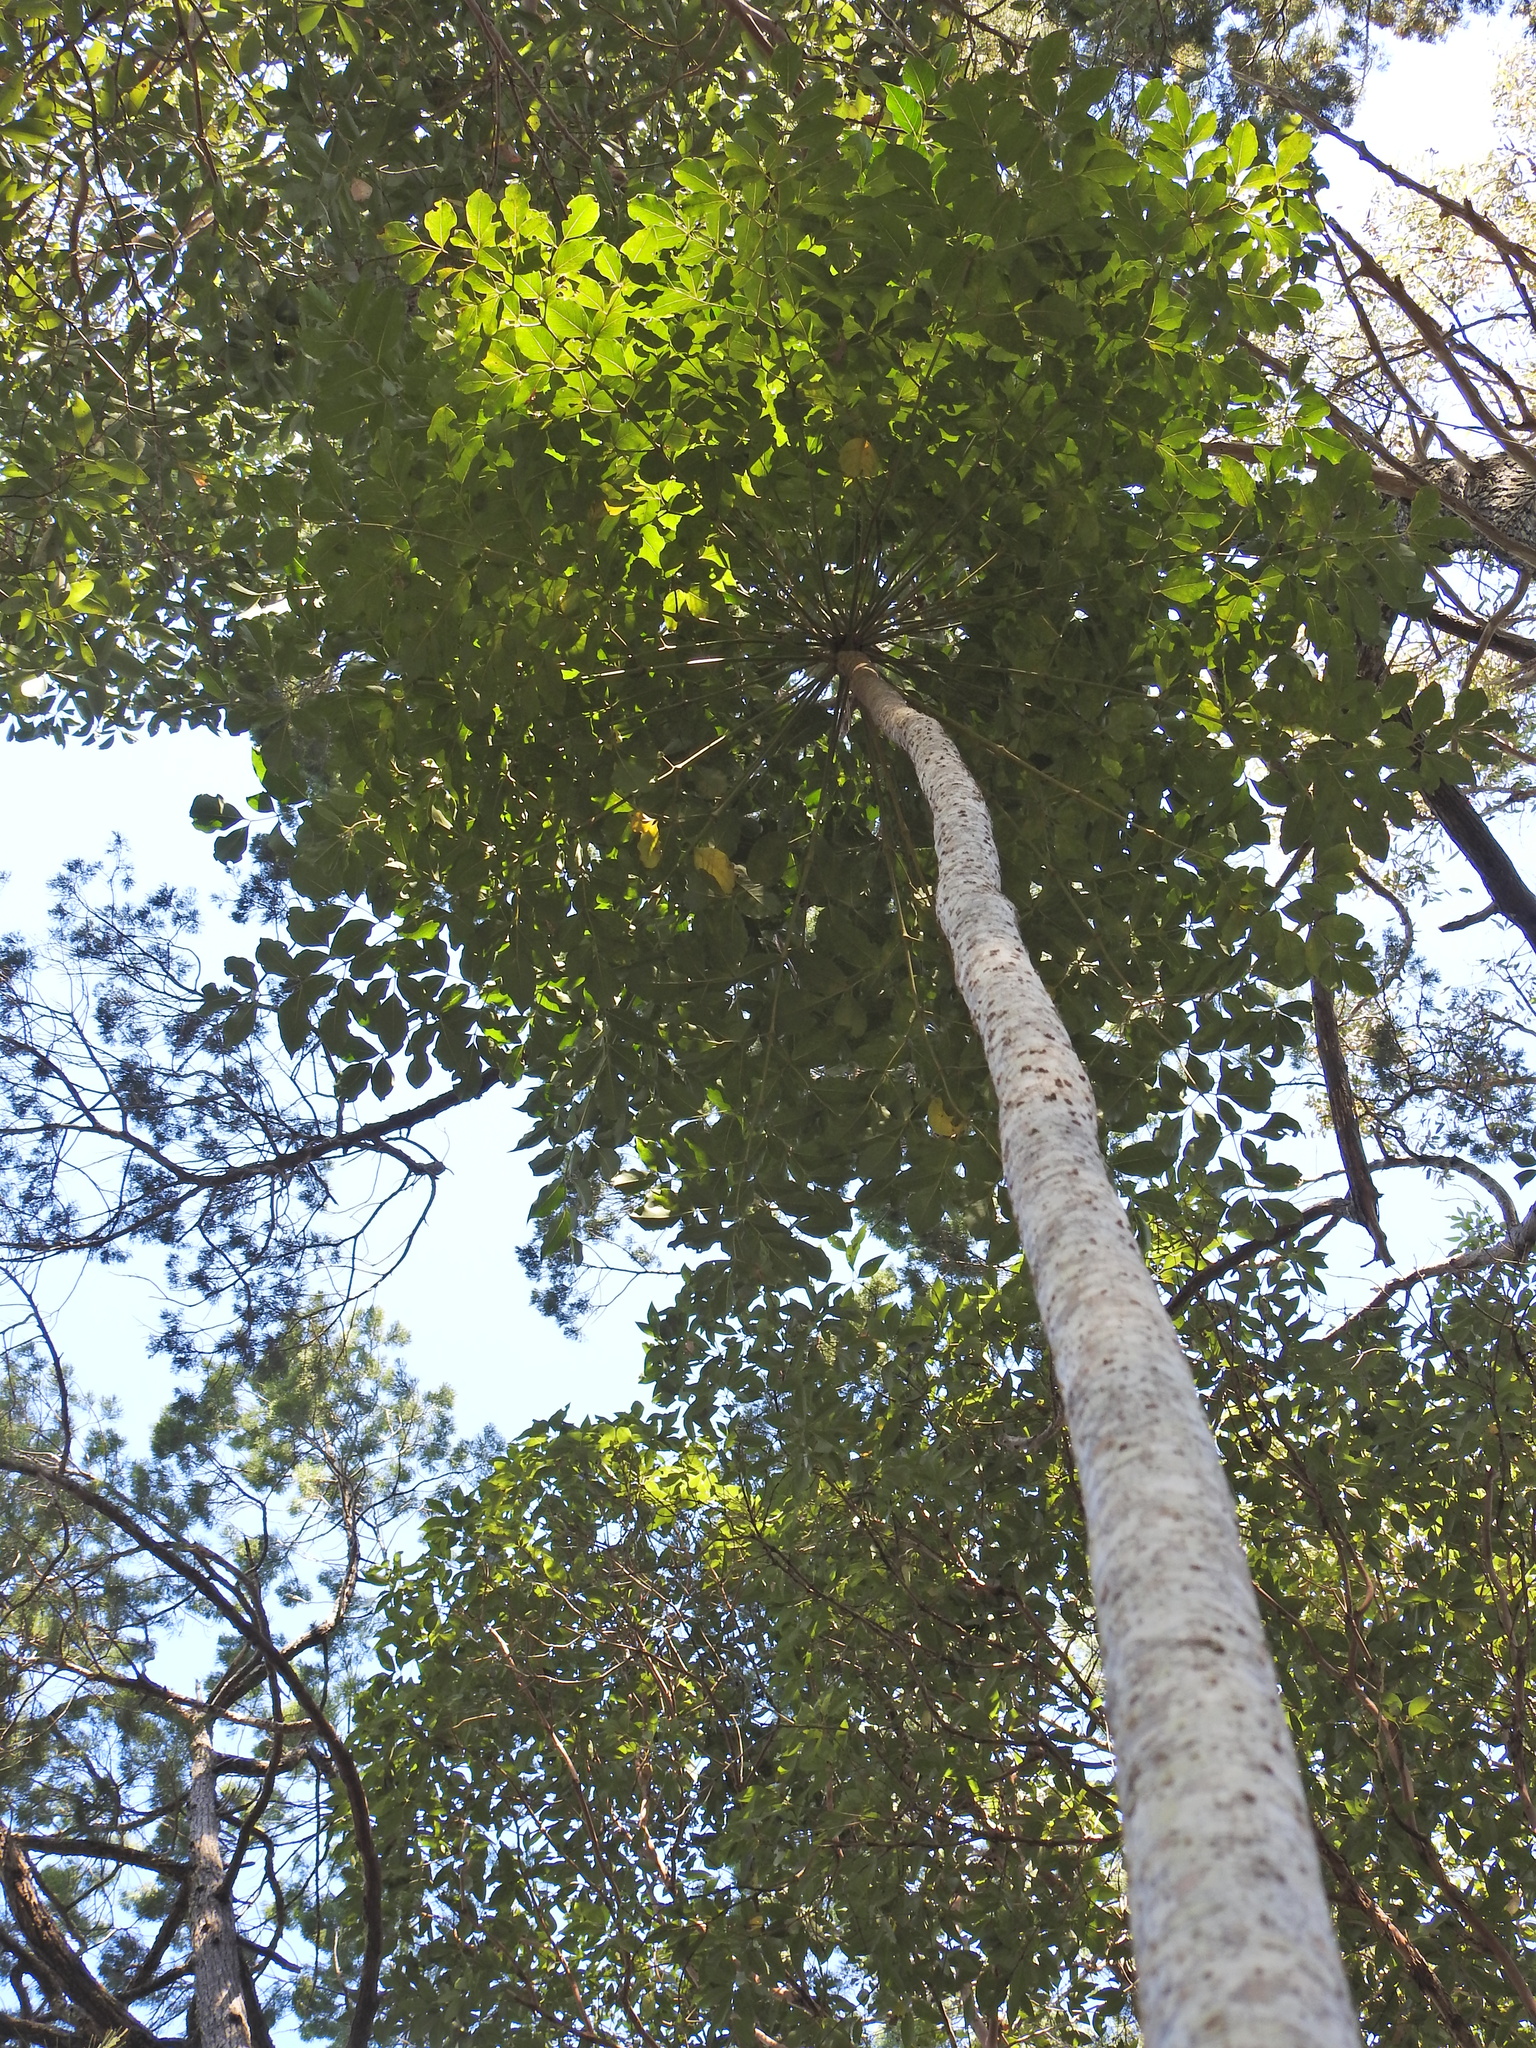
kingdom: Plantae
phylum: Tracheophyta
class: Magnoliopsida
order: Apiales
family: Araliaceae
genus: Polyscias
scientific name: Polyscias elegans
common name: Mowbulan whitewood
